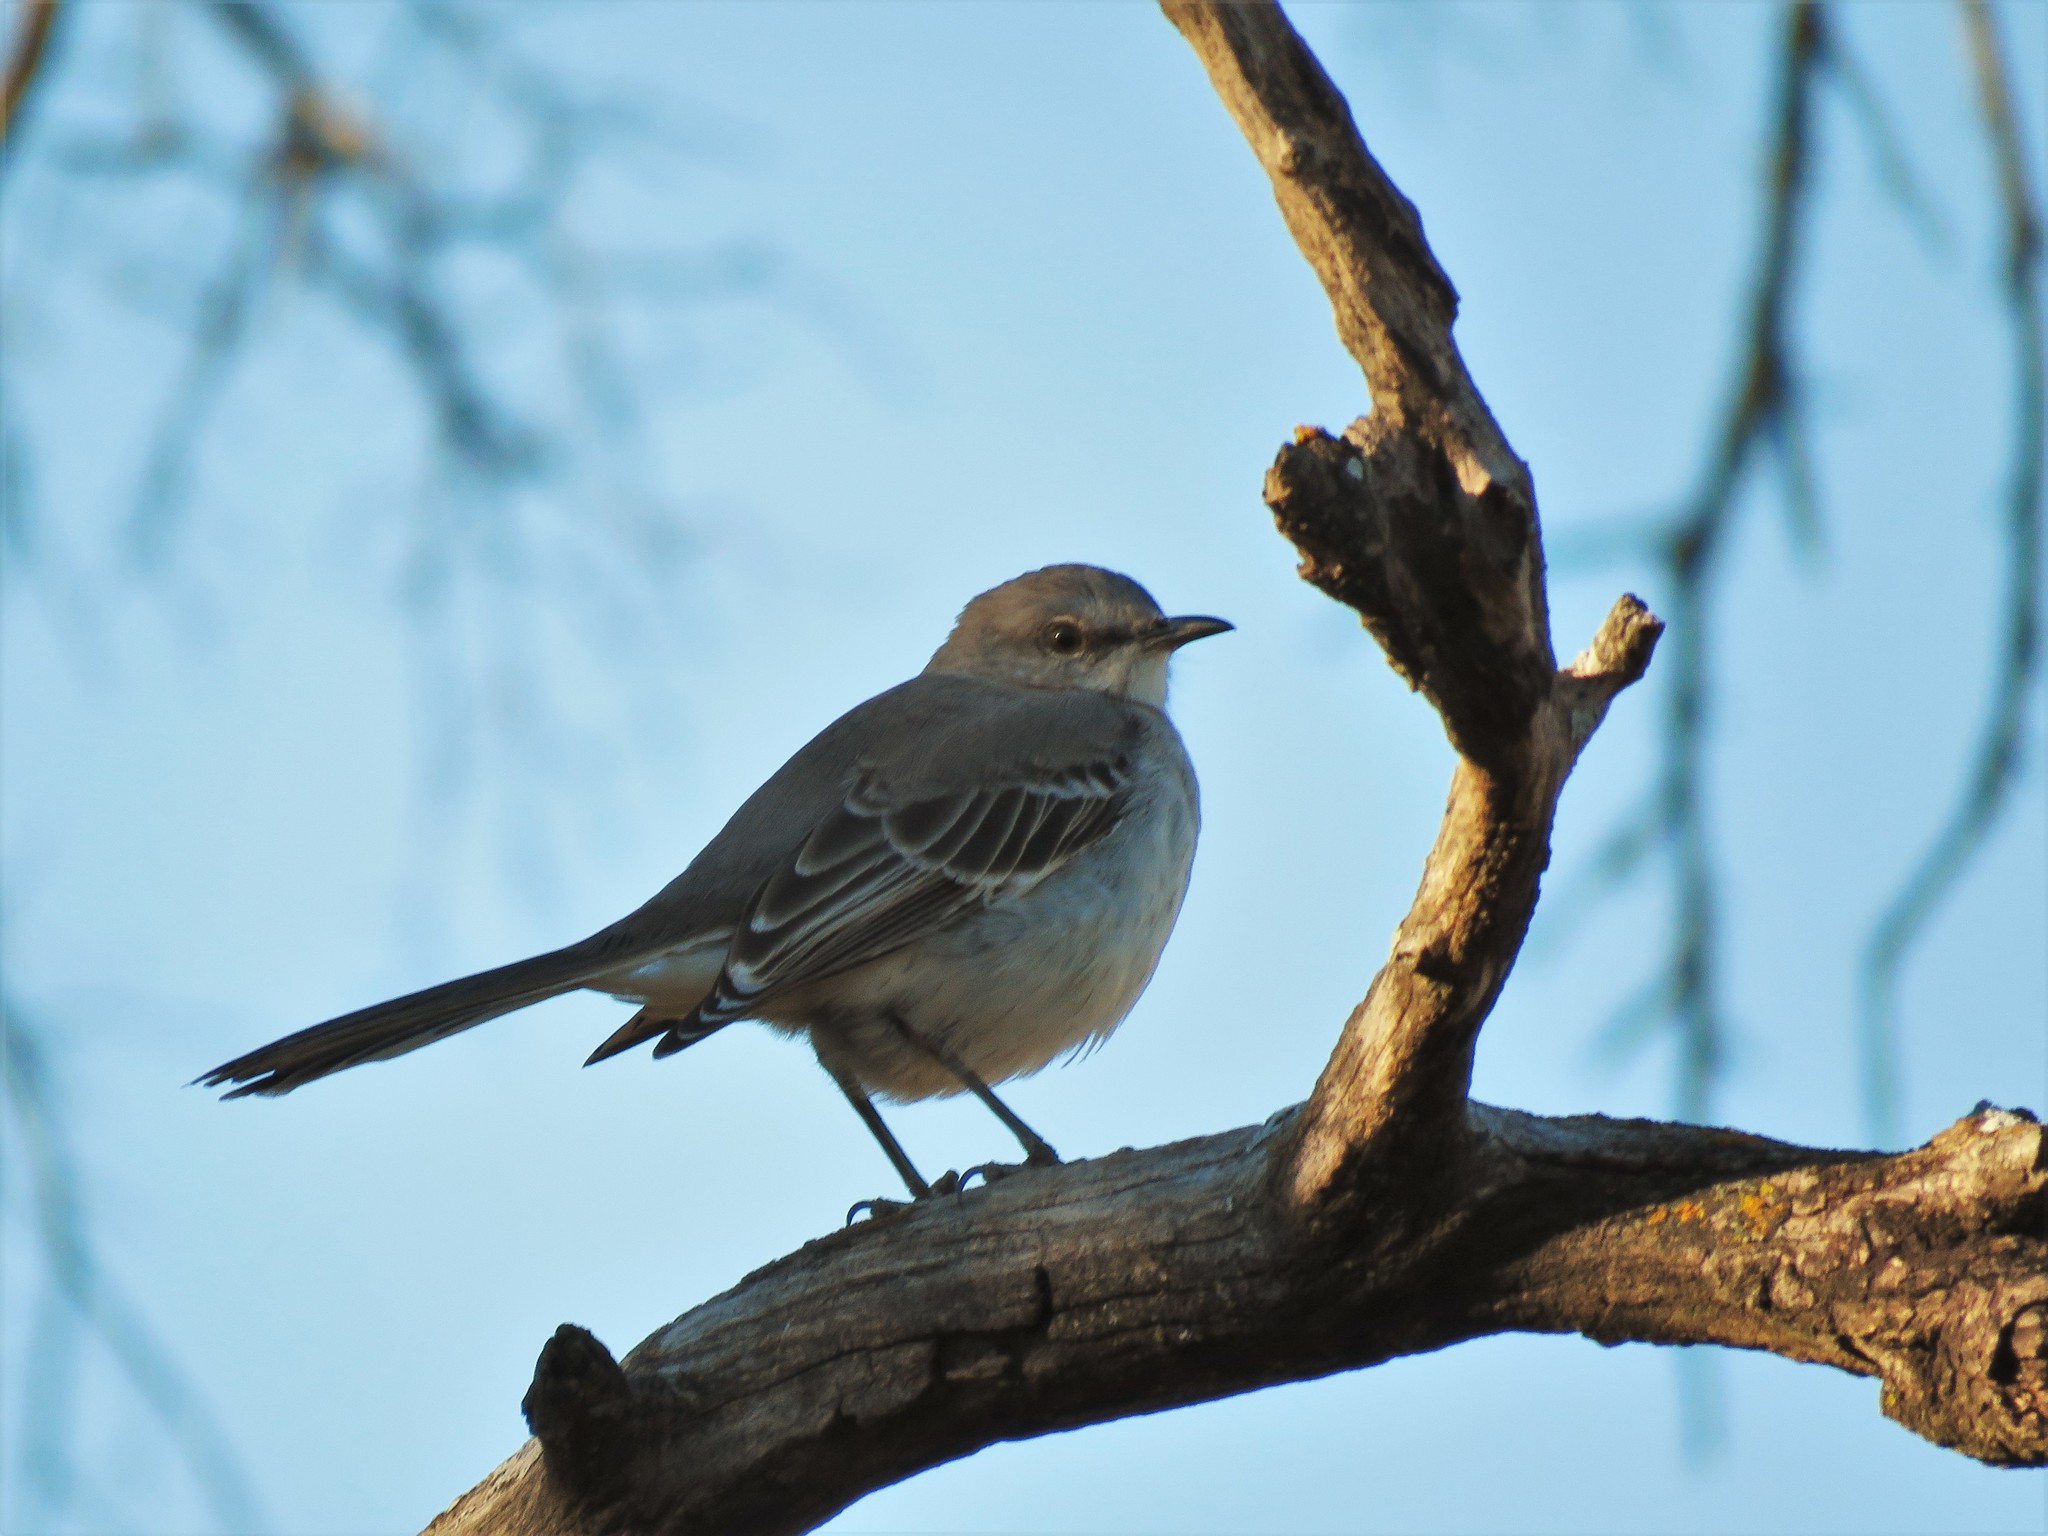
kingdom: Animalia
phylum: Chordata
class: Aves
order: Passeriformes
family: Mimidae
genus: Mimus
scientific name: Mimus polyglottos
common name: Northern mockingbird
